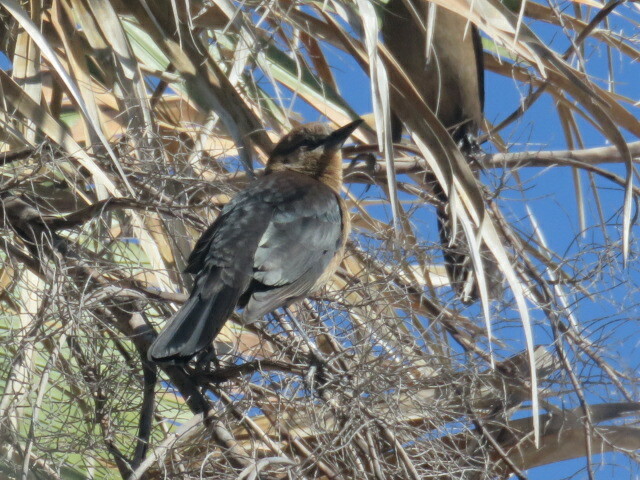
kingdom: Animalia
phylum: Chordata
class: Aves
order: Passeriformes
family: Icteridae
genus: Quiscalus
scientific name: Quiscalus major
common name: Boat-tailed grackle
